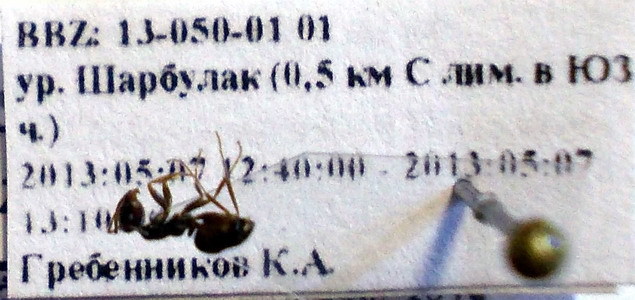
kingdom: Animalia
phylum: Arthropoda
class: Insecta
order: Hymenoptera
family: Formicidae
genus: Proformica
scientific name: Proformica epinotalis
